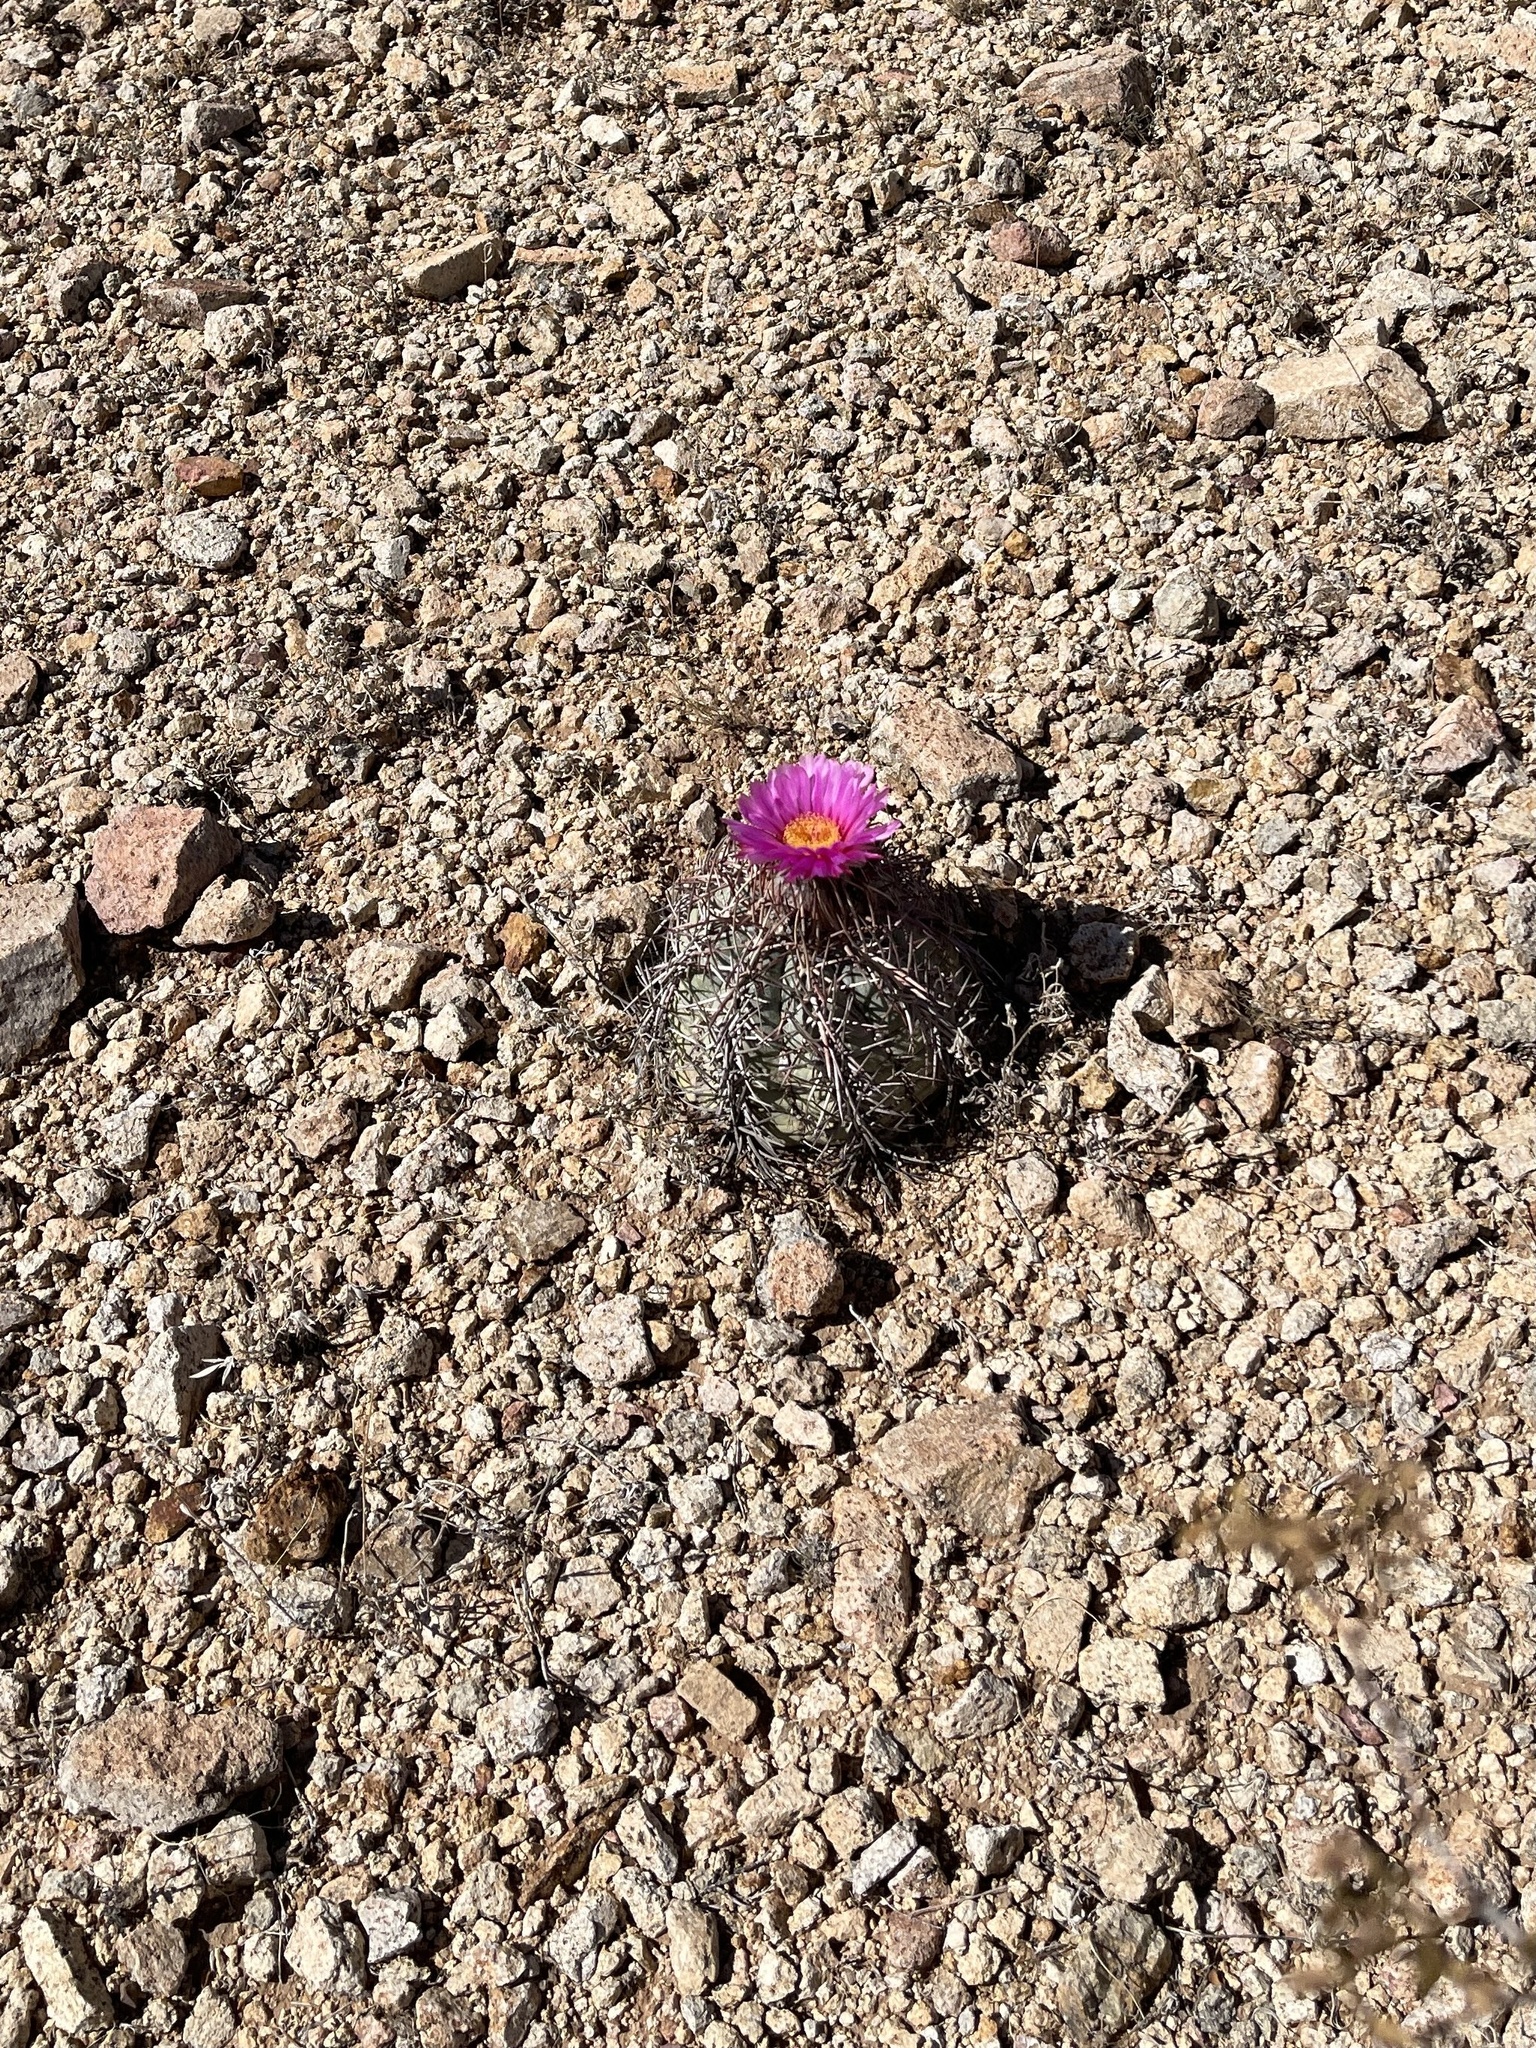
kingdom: Plantae
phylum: Tracheophyta
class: Magnoliopsida
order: Caryophyllales
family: Cactaceae
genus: Echinocactus
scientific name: Echinocactus horizonthalonius
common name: Devilshead
